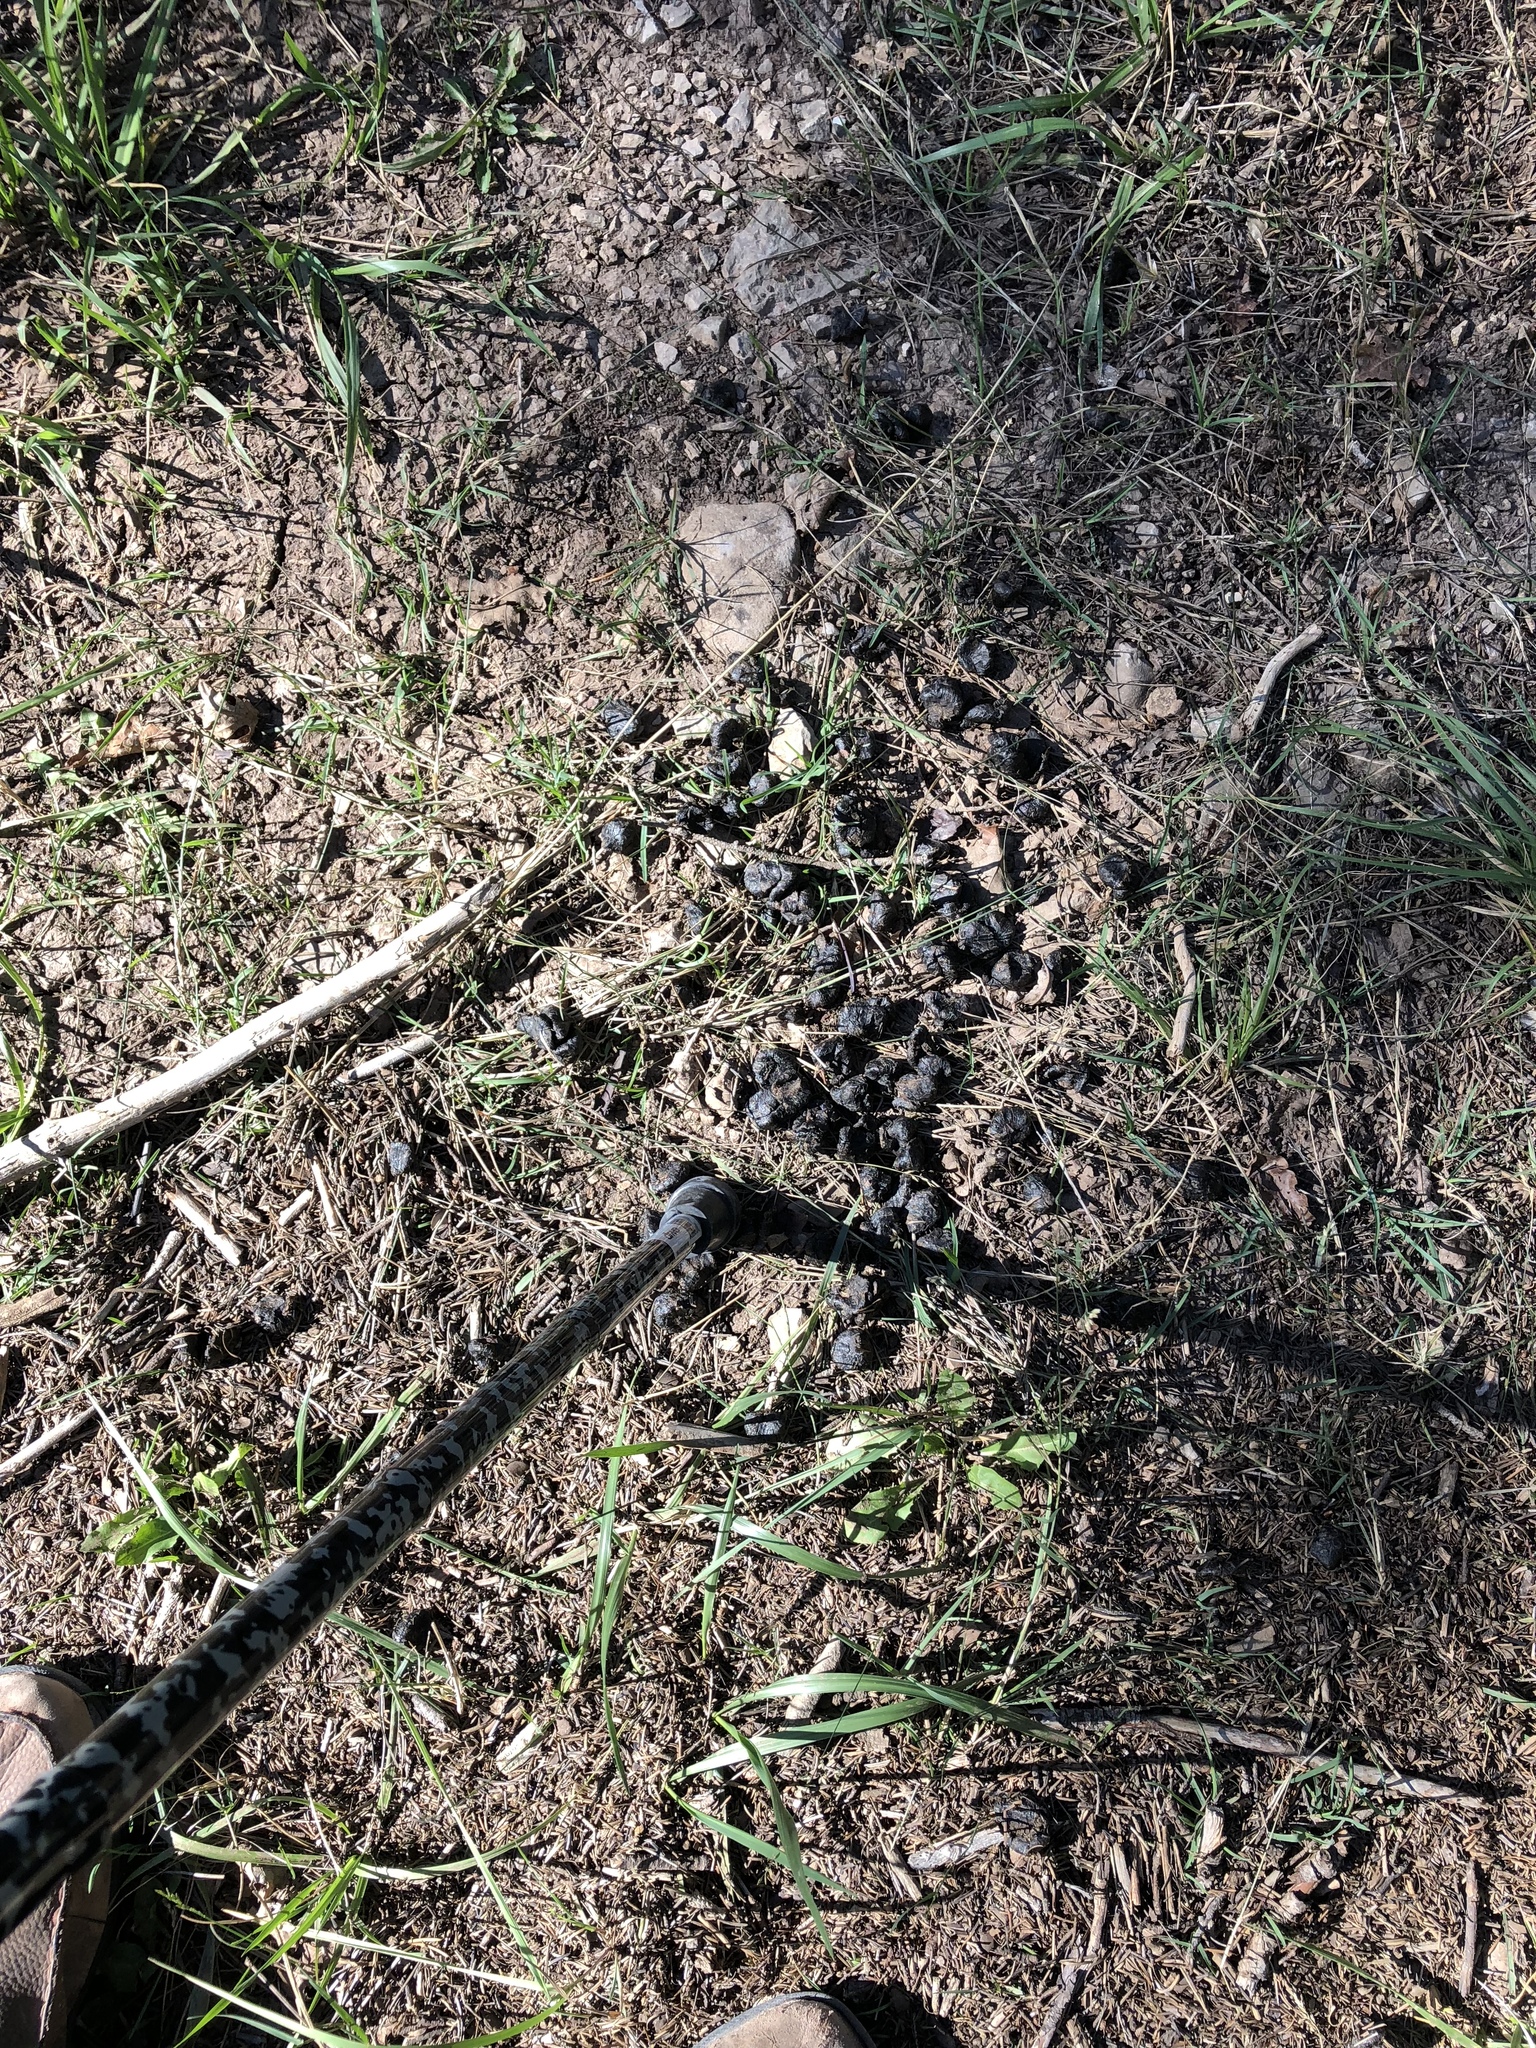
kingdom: Animalia
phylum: Chordata
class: Mammalia
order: Artiodactyla
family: Cervidae
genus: Cervus
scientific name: Cervus elaphus
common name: Red deer
